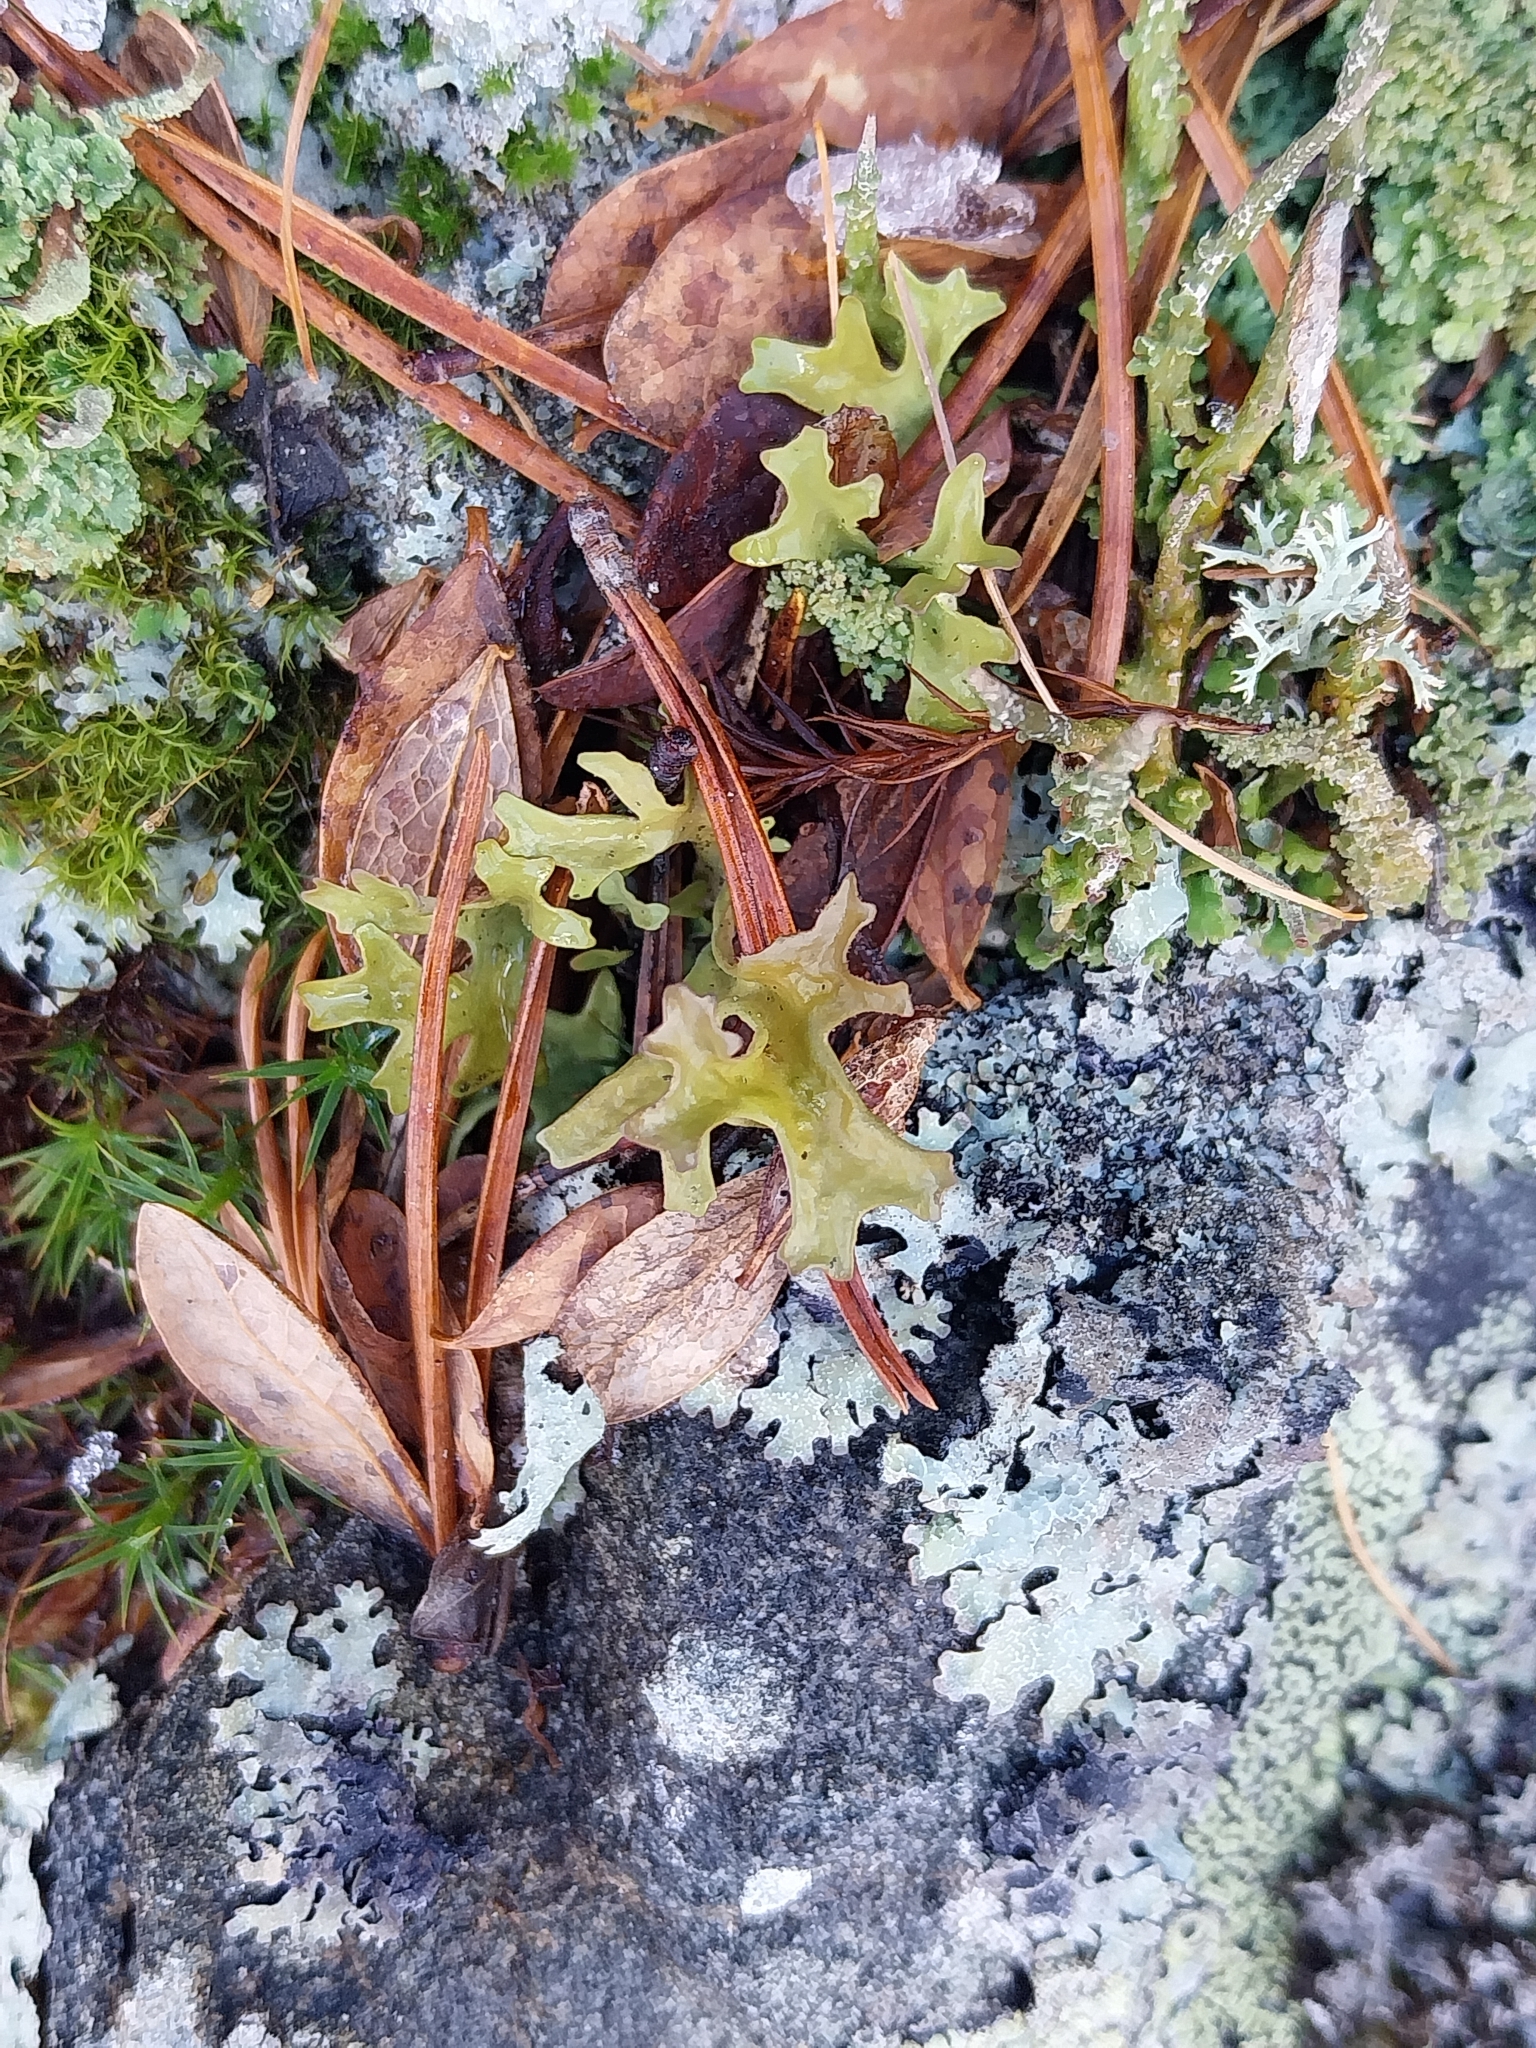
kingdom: Fungi
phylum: Ascomycota
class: Lecanoromycetes
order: Lecanorales
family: Parmeliaceae
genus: Cetraria
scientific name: Cetraria islandica
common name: Iceland lichen
